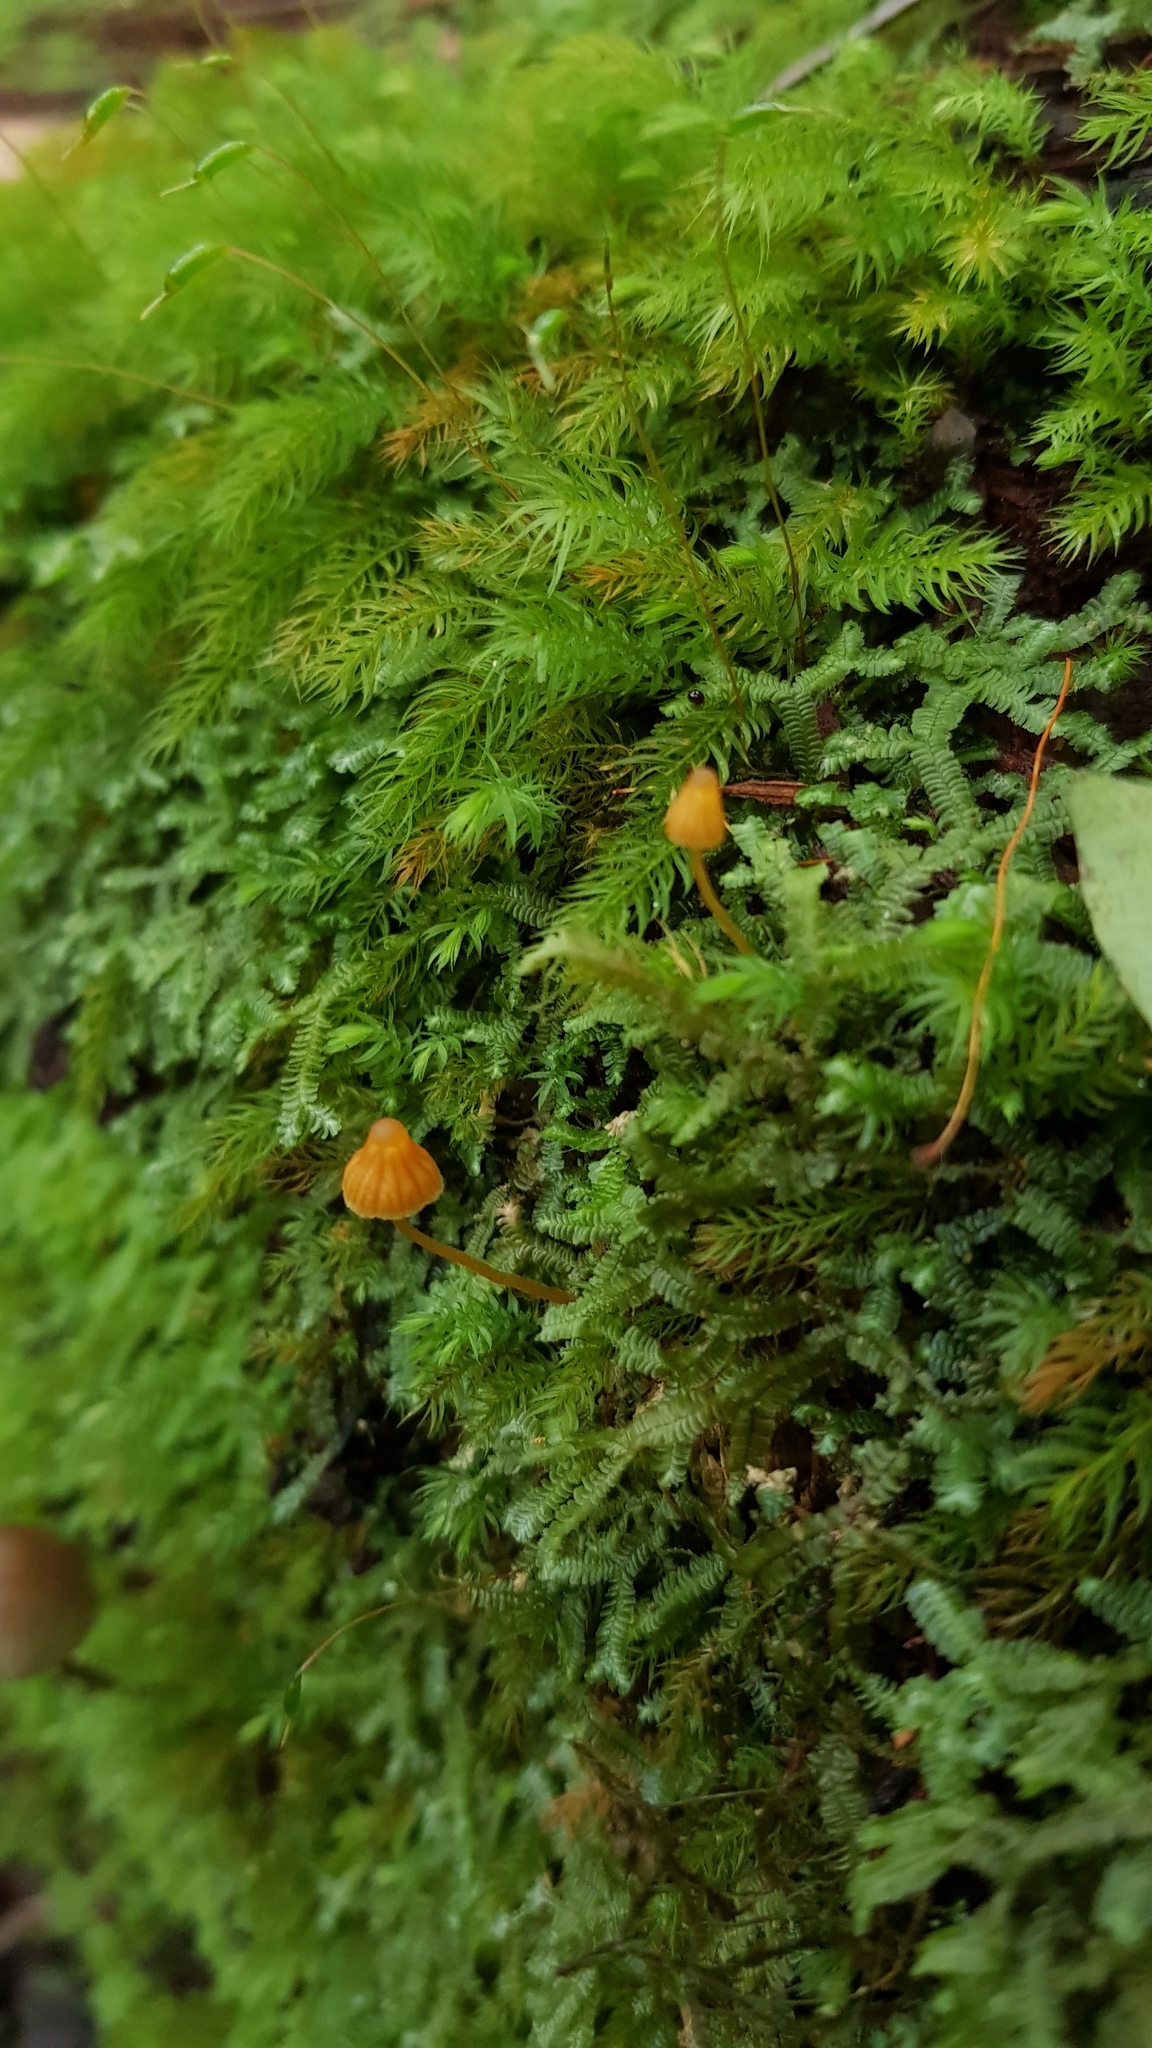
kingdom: Fungi
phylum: Basidiomycota
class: Agaricomycetes
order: Agaricales
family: Hymenogastraceae
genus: Galerina
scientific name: Galerina hypnorum
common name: Moss bell
